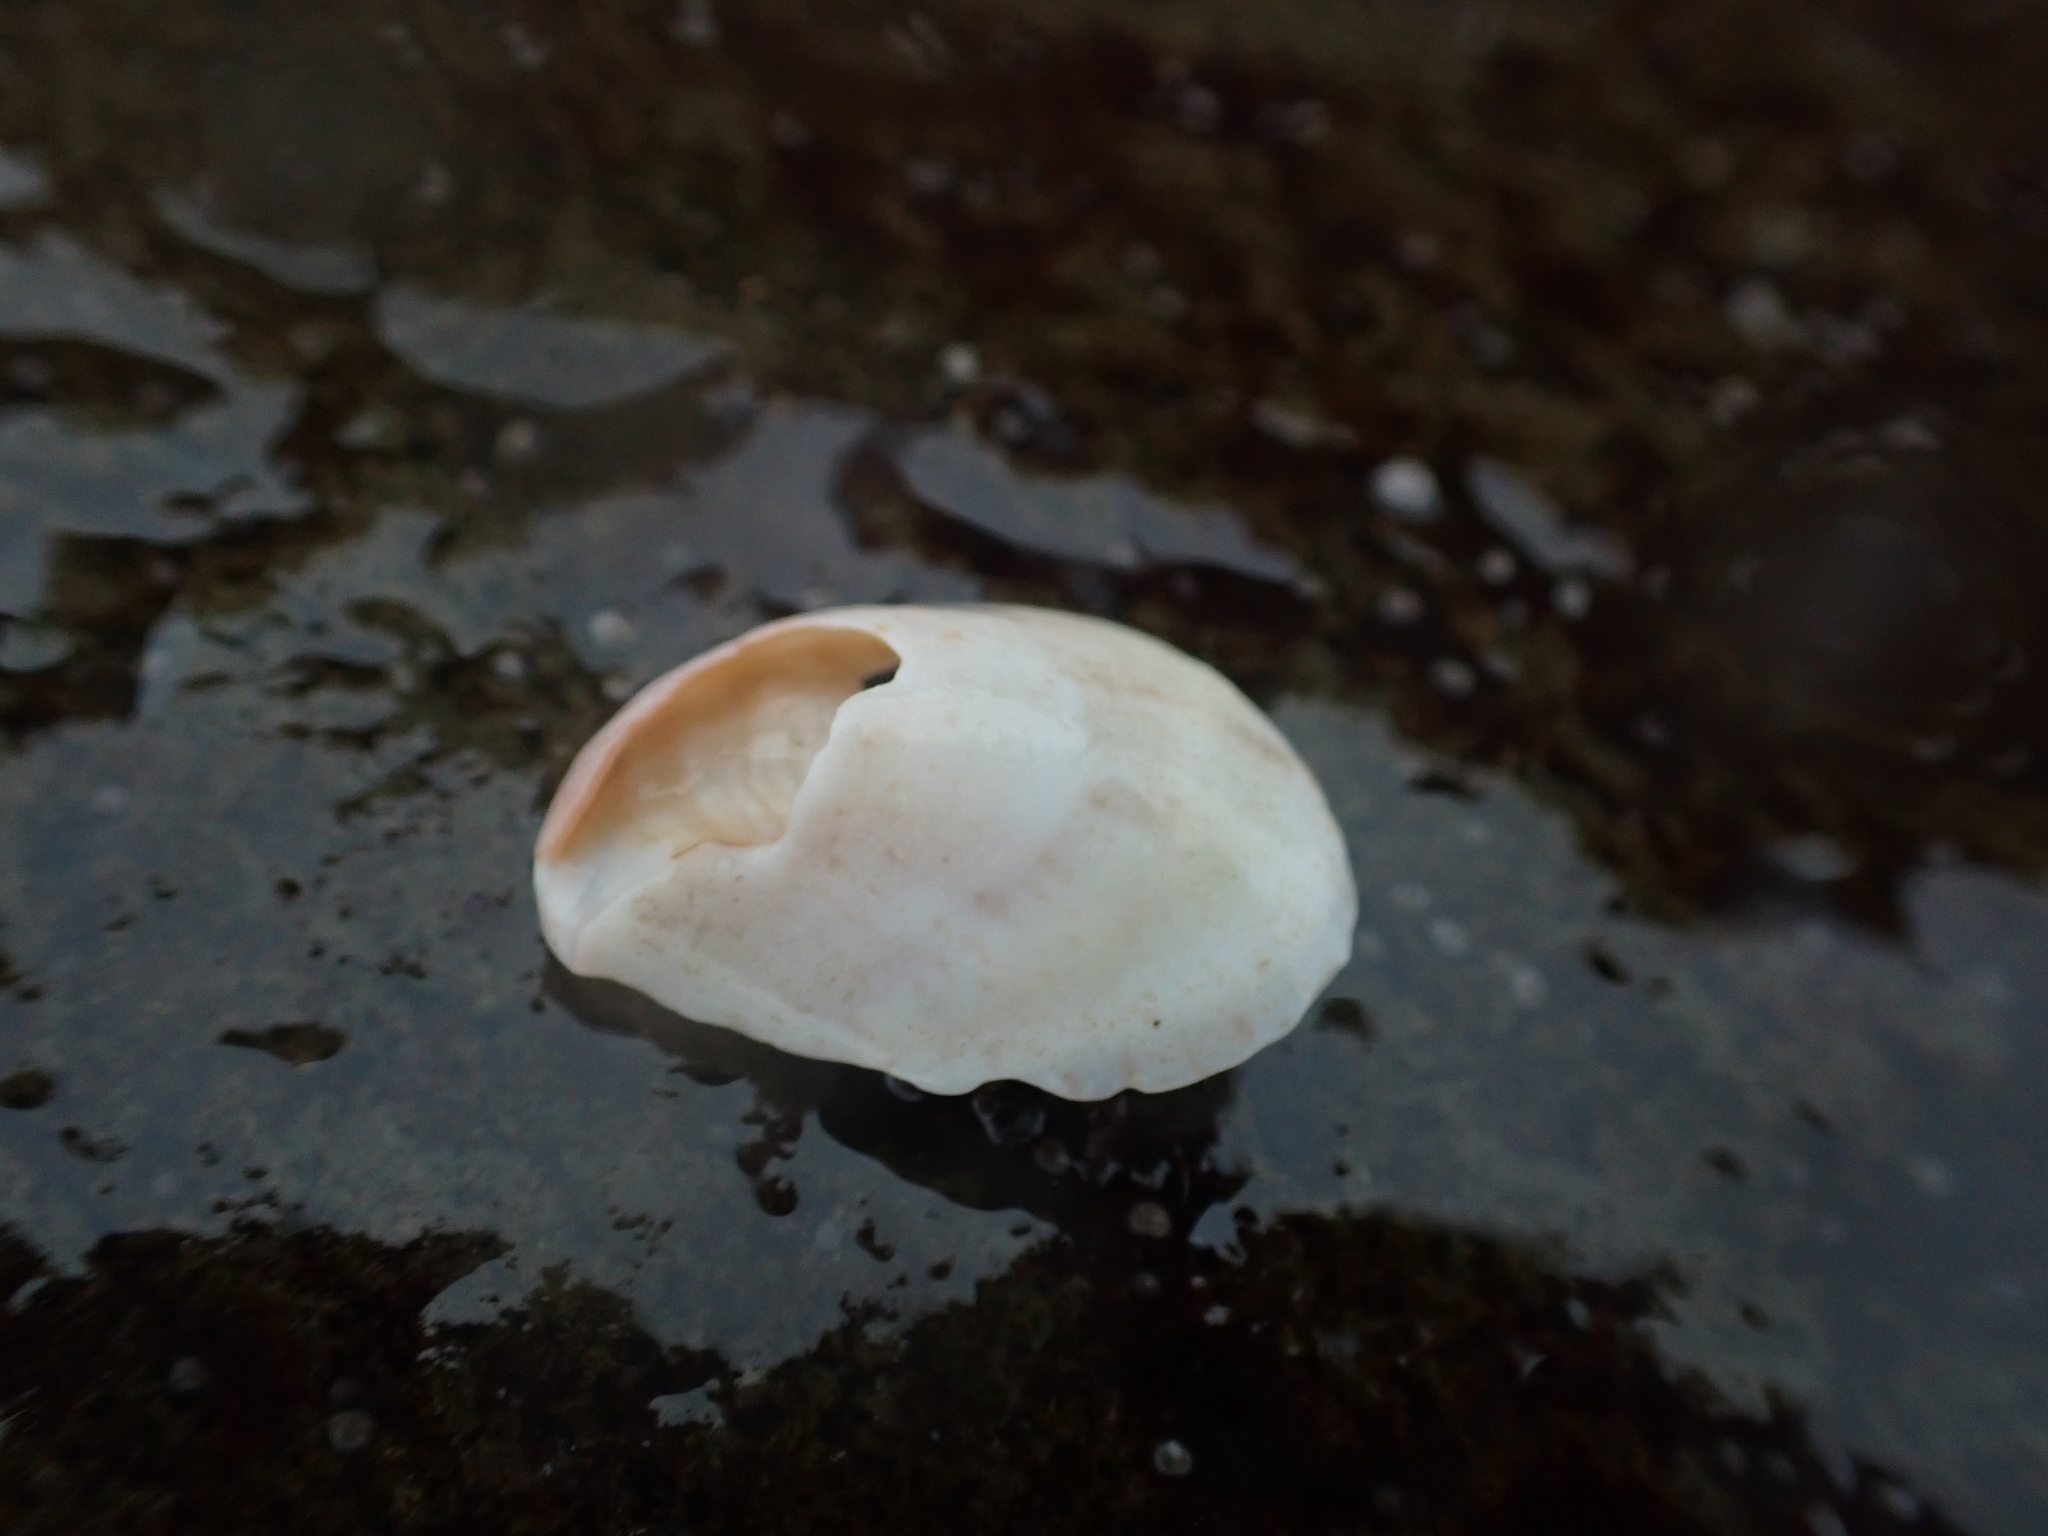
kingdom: Animalia
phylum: Mollusca
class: Gastropoda
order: Littorinimorpha
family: Calyptraeidae
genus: Crepidula
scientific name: Crepidula fornicata
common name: Slipper limpet
